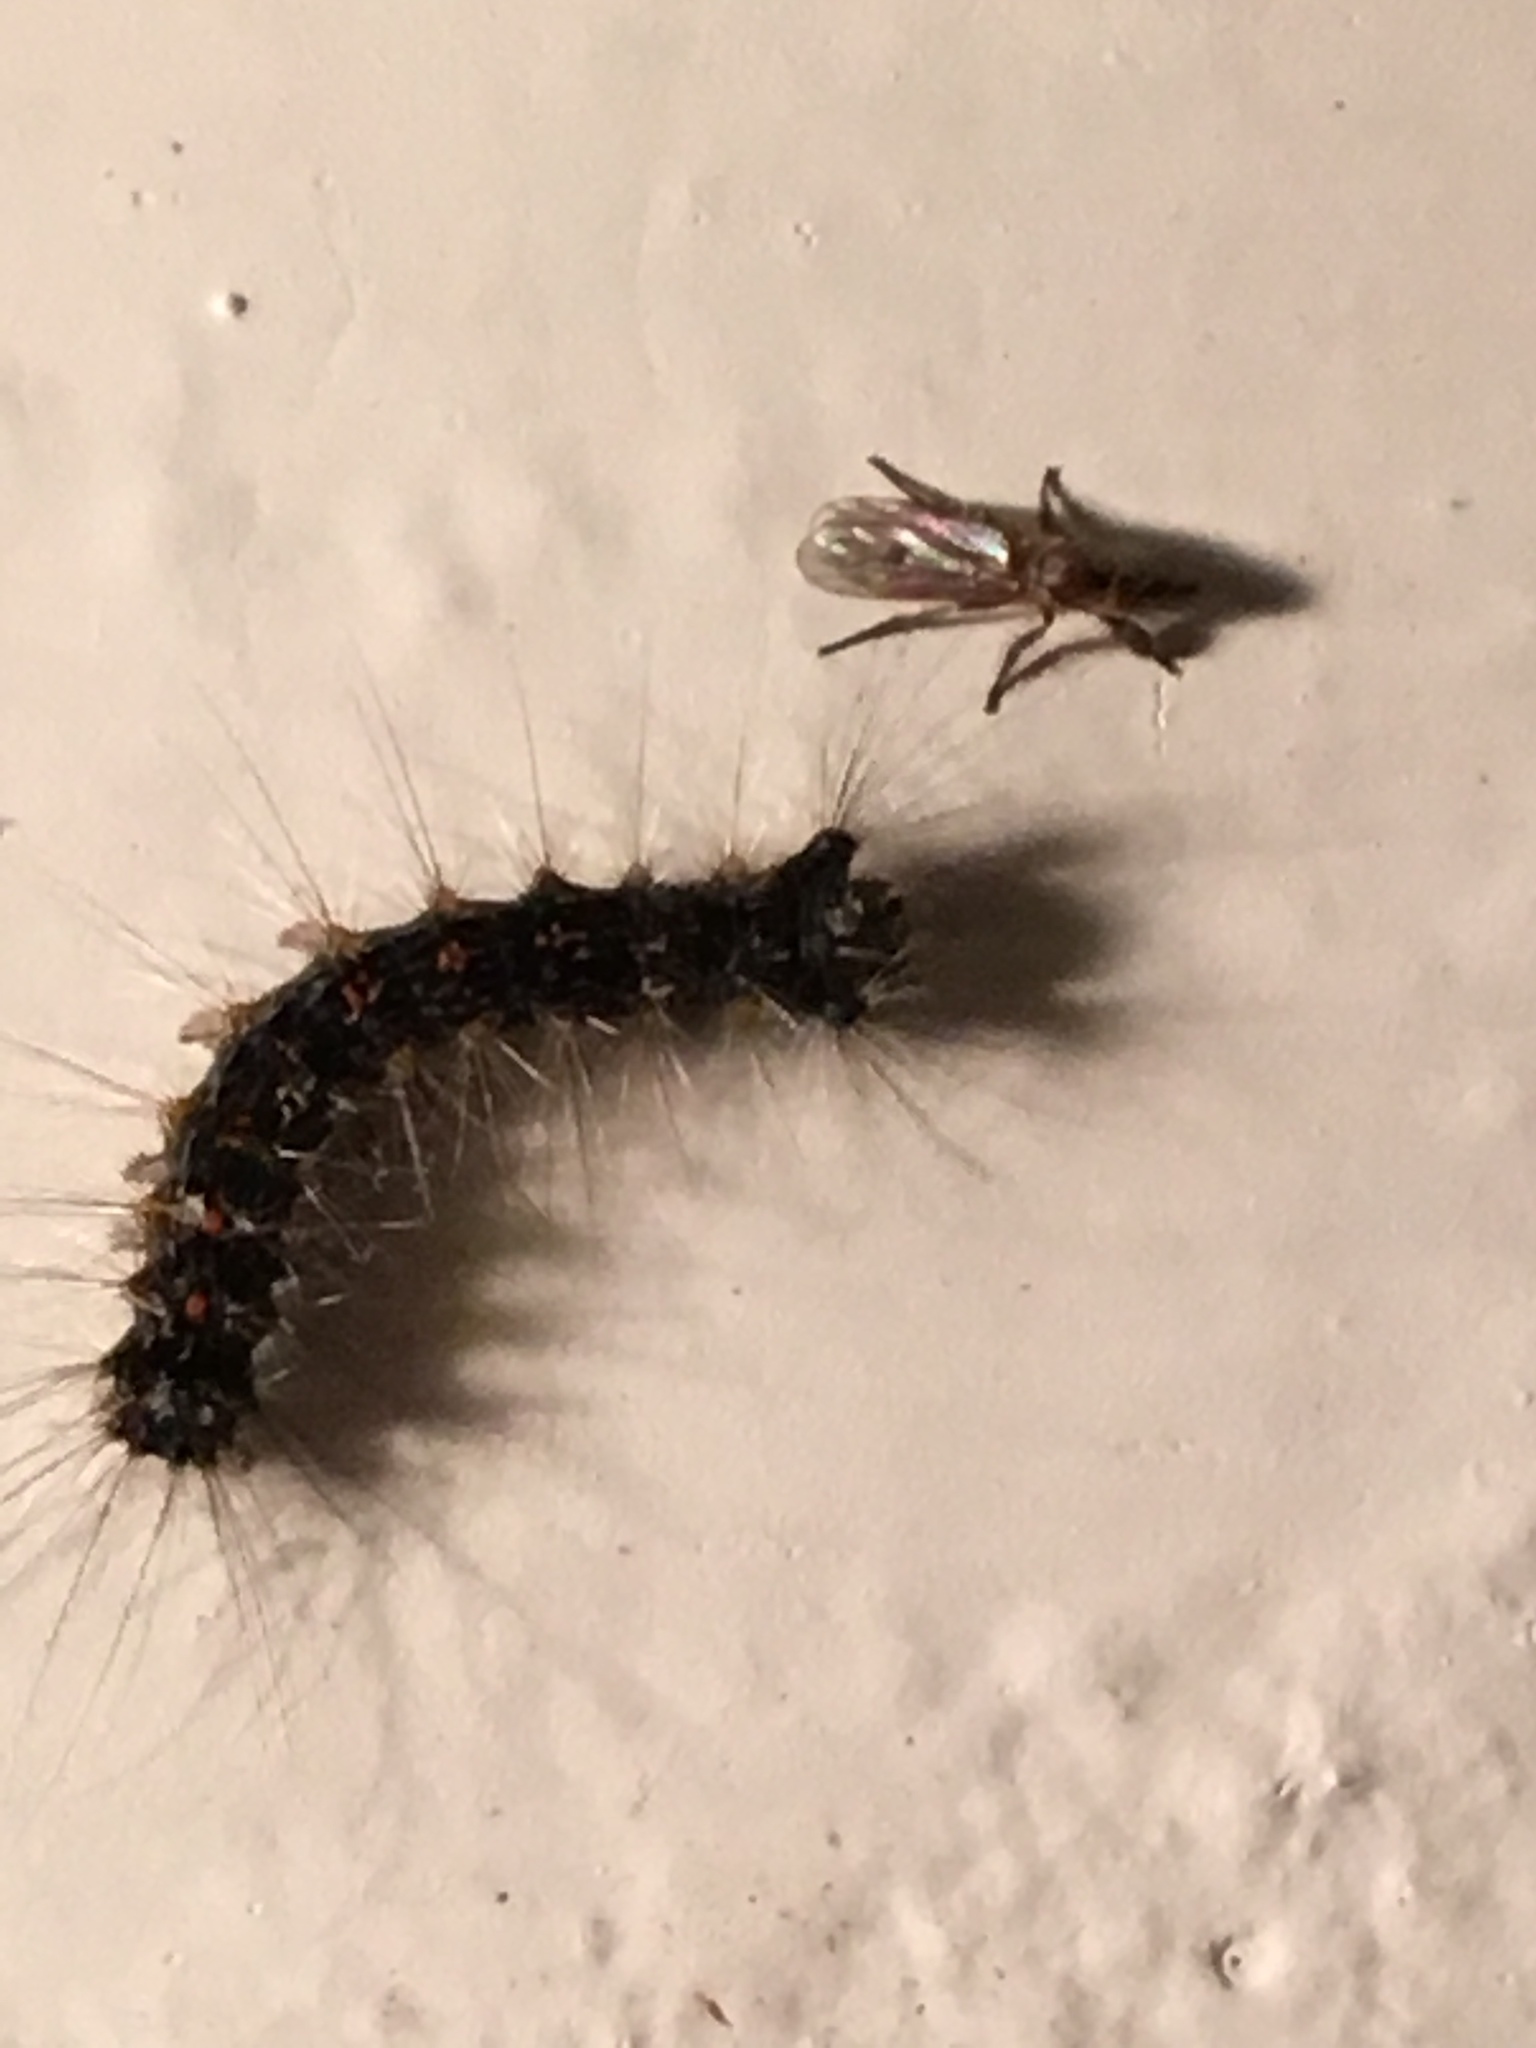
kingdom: Animalia
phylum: Arthropoda
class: Insecta
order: Lepidoptera
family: Erebidae
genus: Lymantria
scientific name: Lymantria dispar
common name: Gypsy moth
